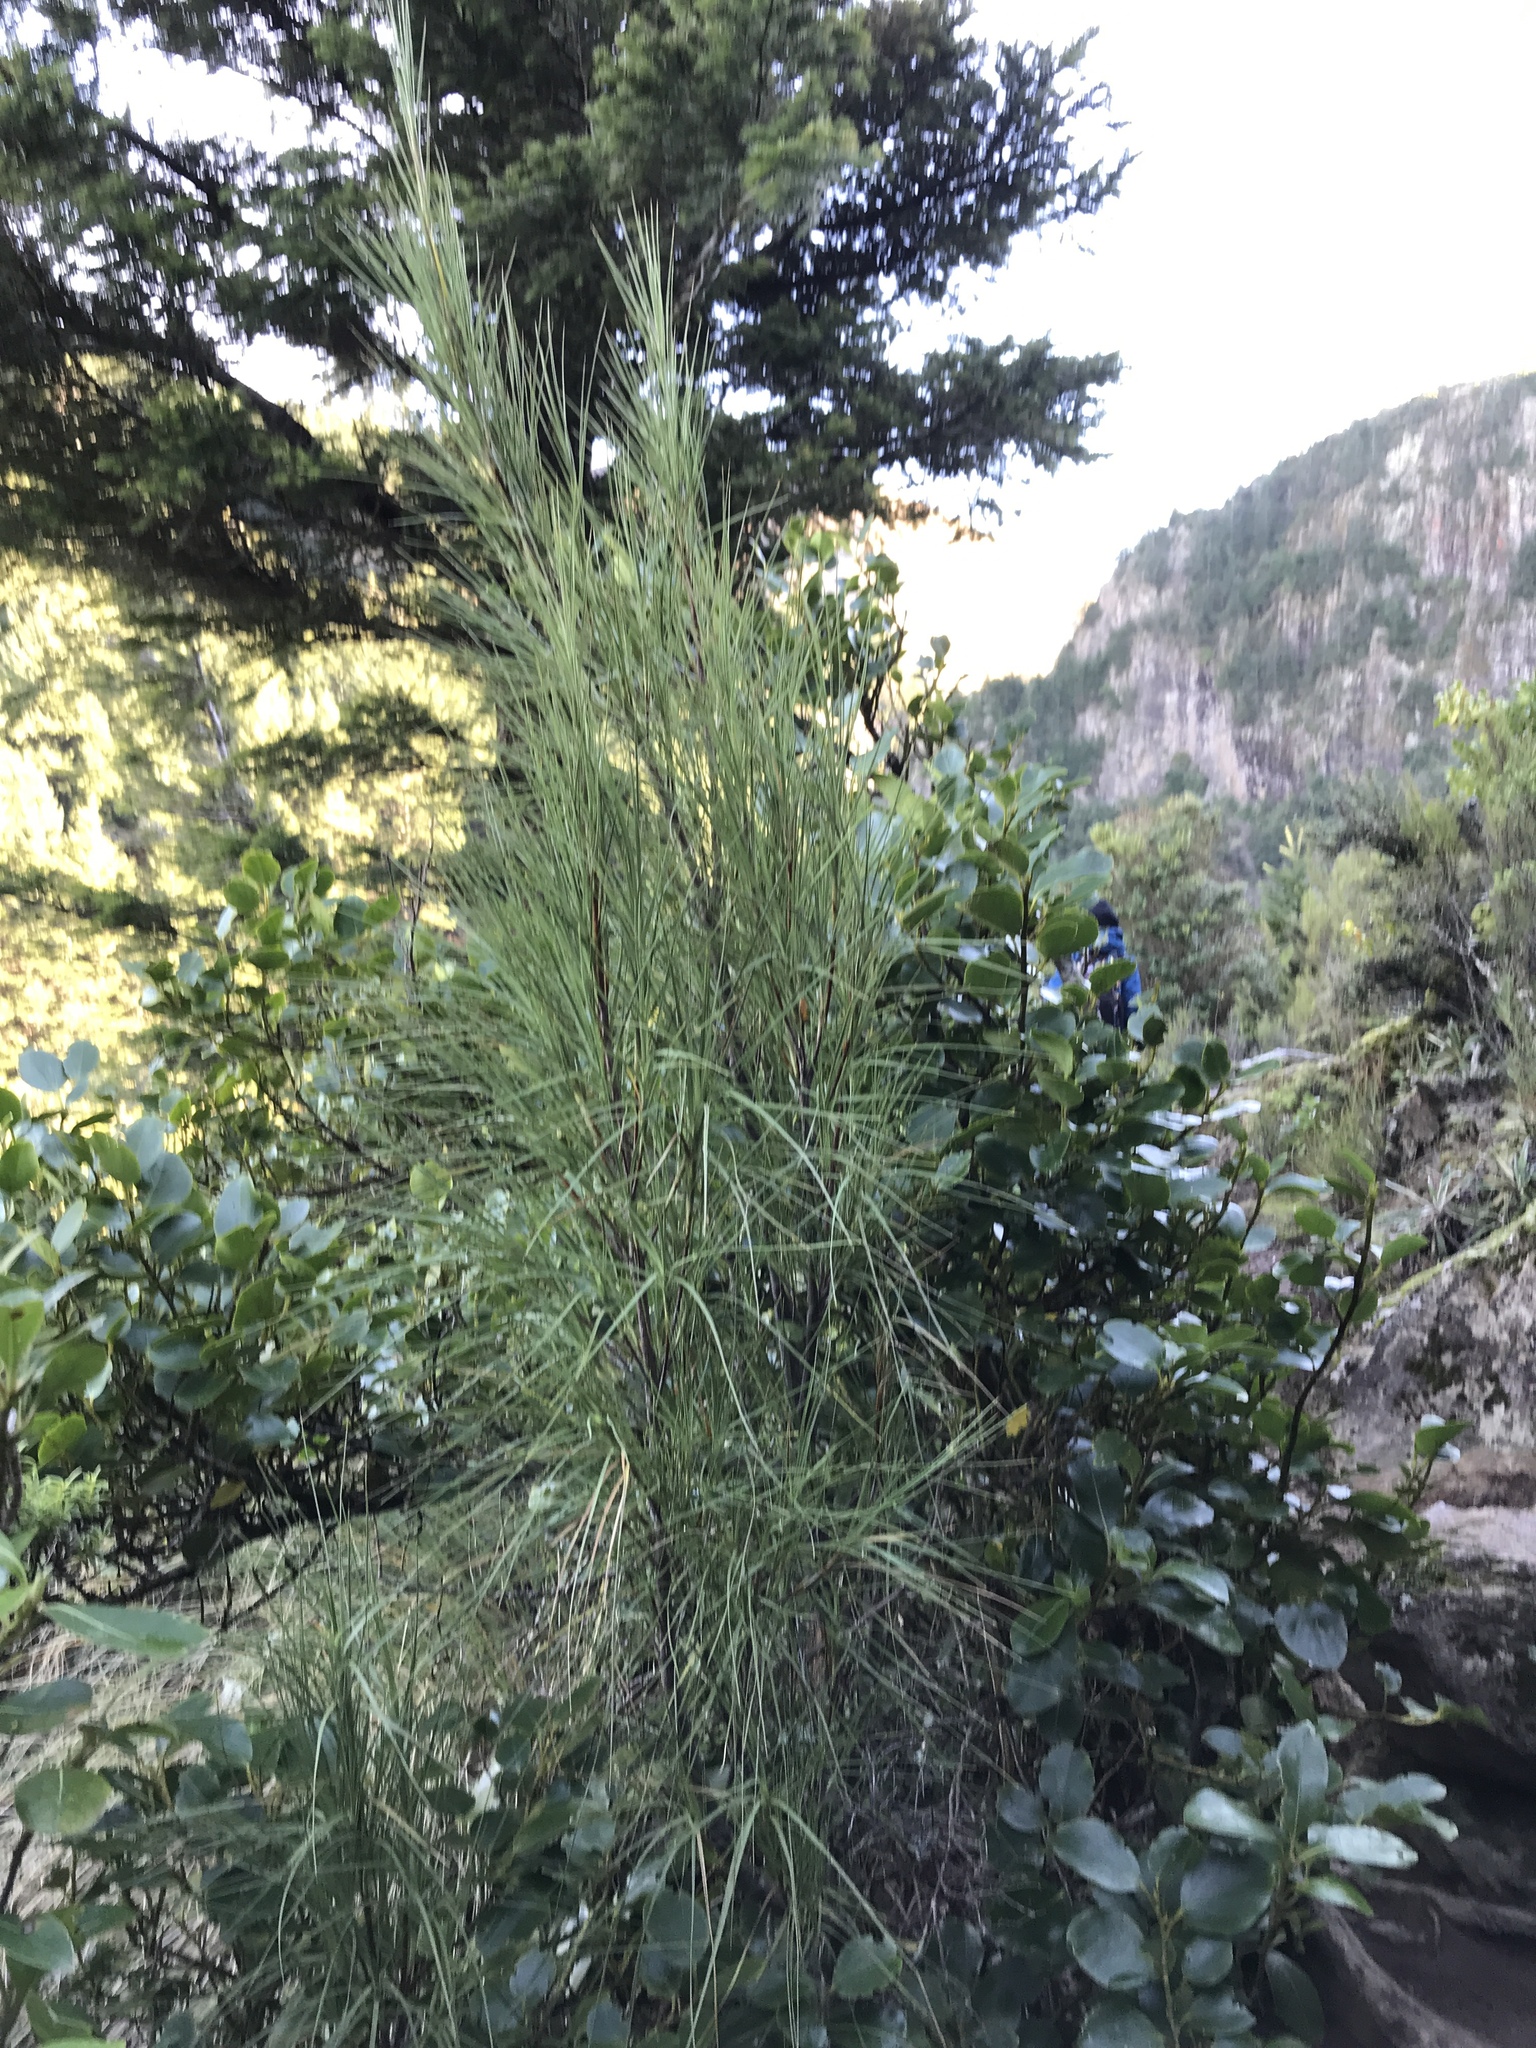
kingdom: Plantae
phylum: Tracheophyta
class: Magnoliopsida
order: Ericales
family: Ericaceae
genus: Dracophyllum
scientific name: Dracophyllum longifolium
